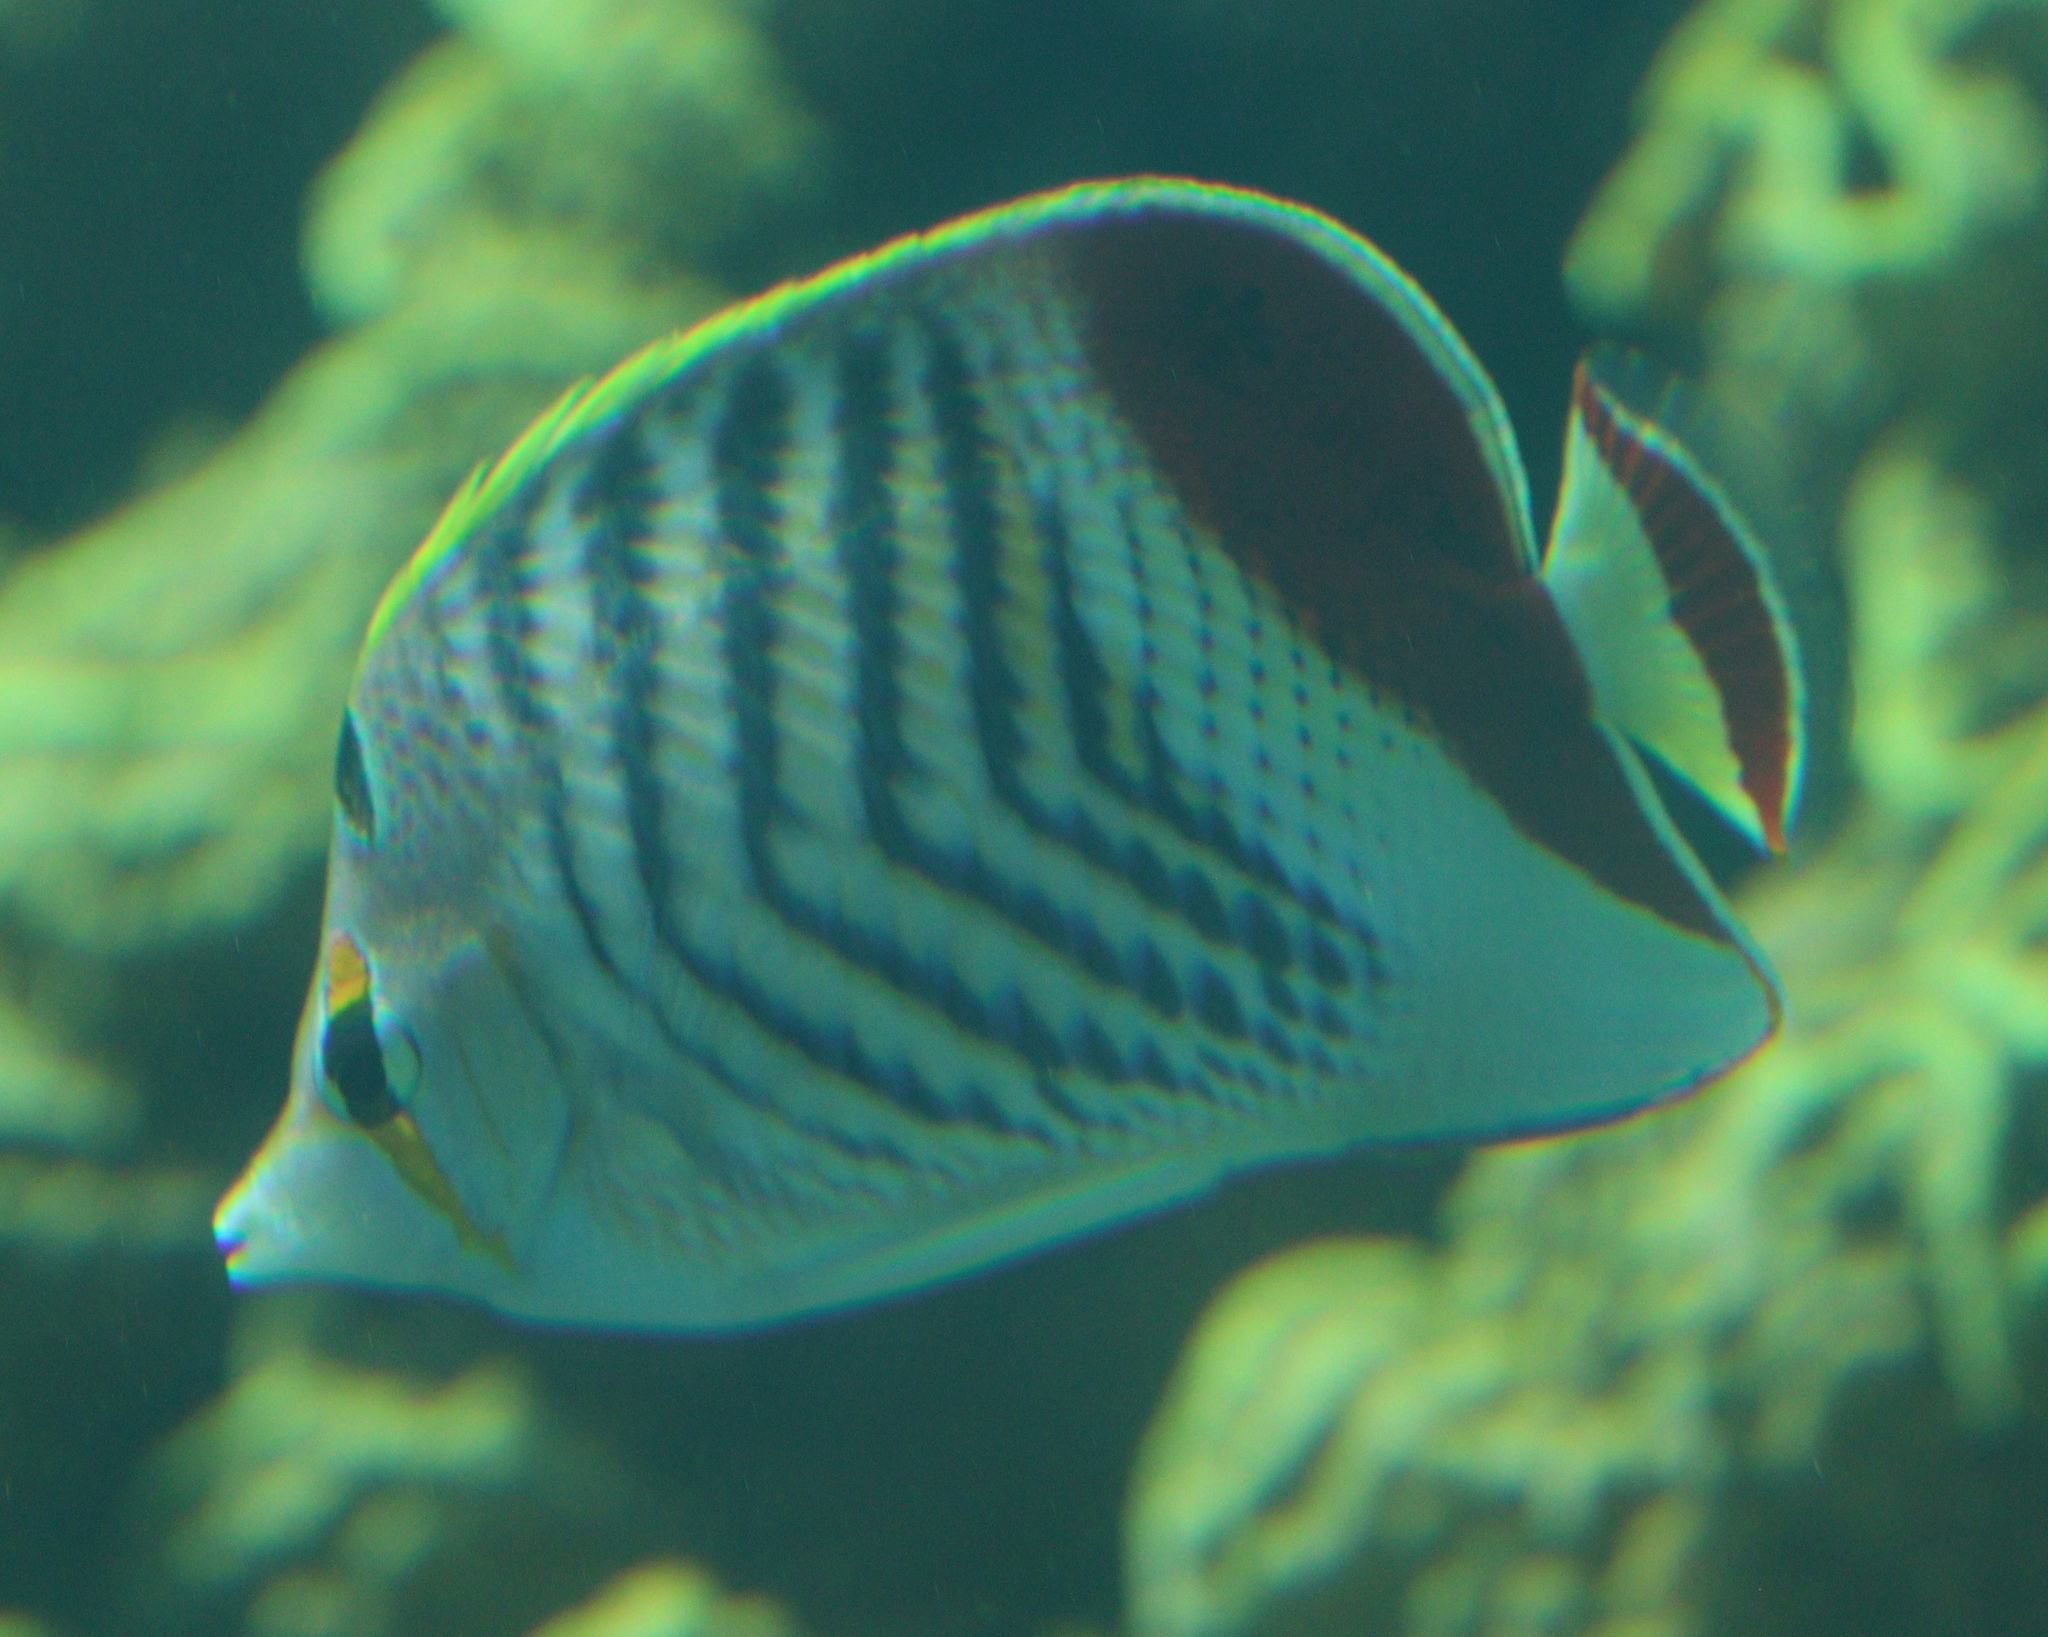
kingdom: Animalia
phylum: Chordata
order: Perciformes
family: Chaetodontidae
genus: Chaetodon
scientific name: Chaetodon paucifasciatus
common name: Crown butterflyfish
